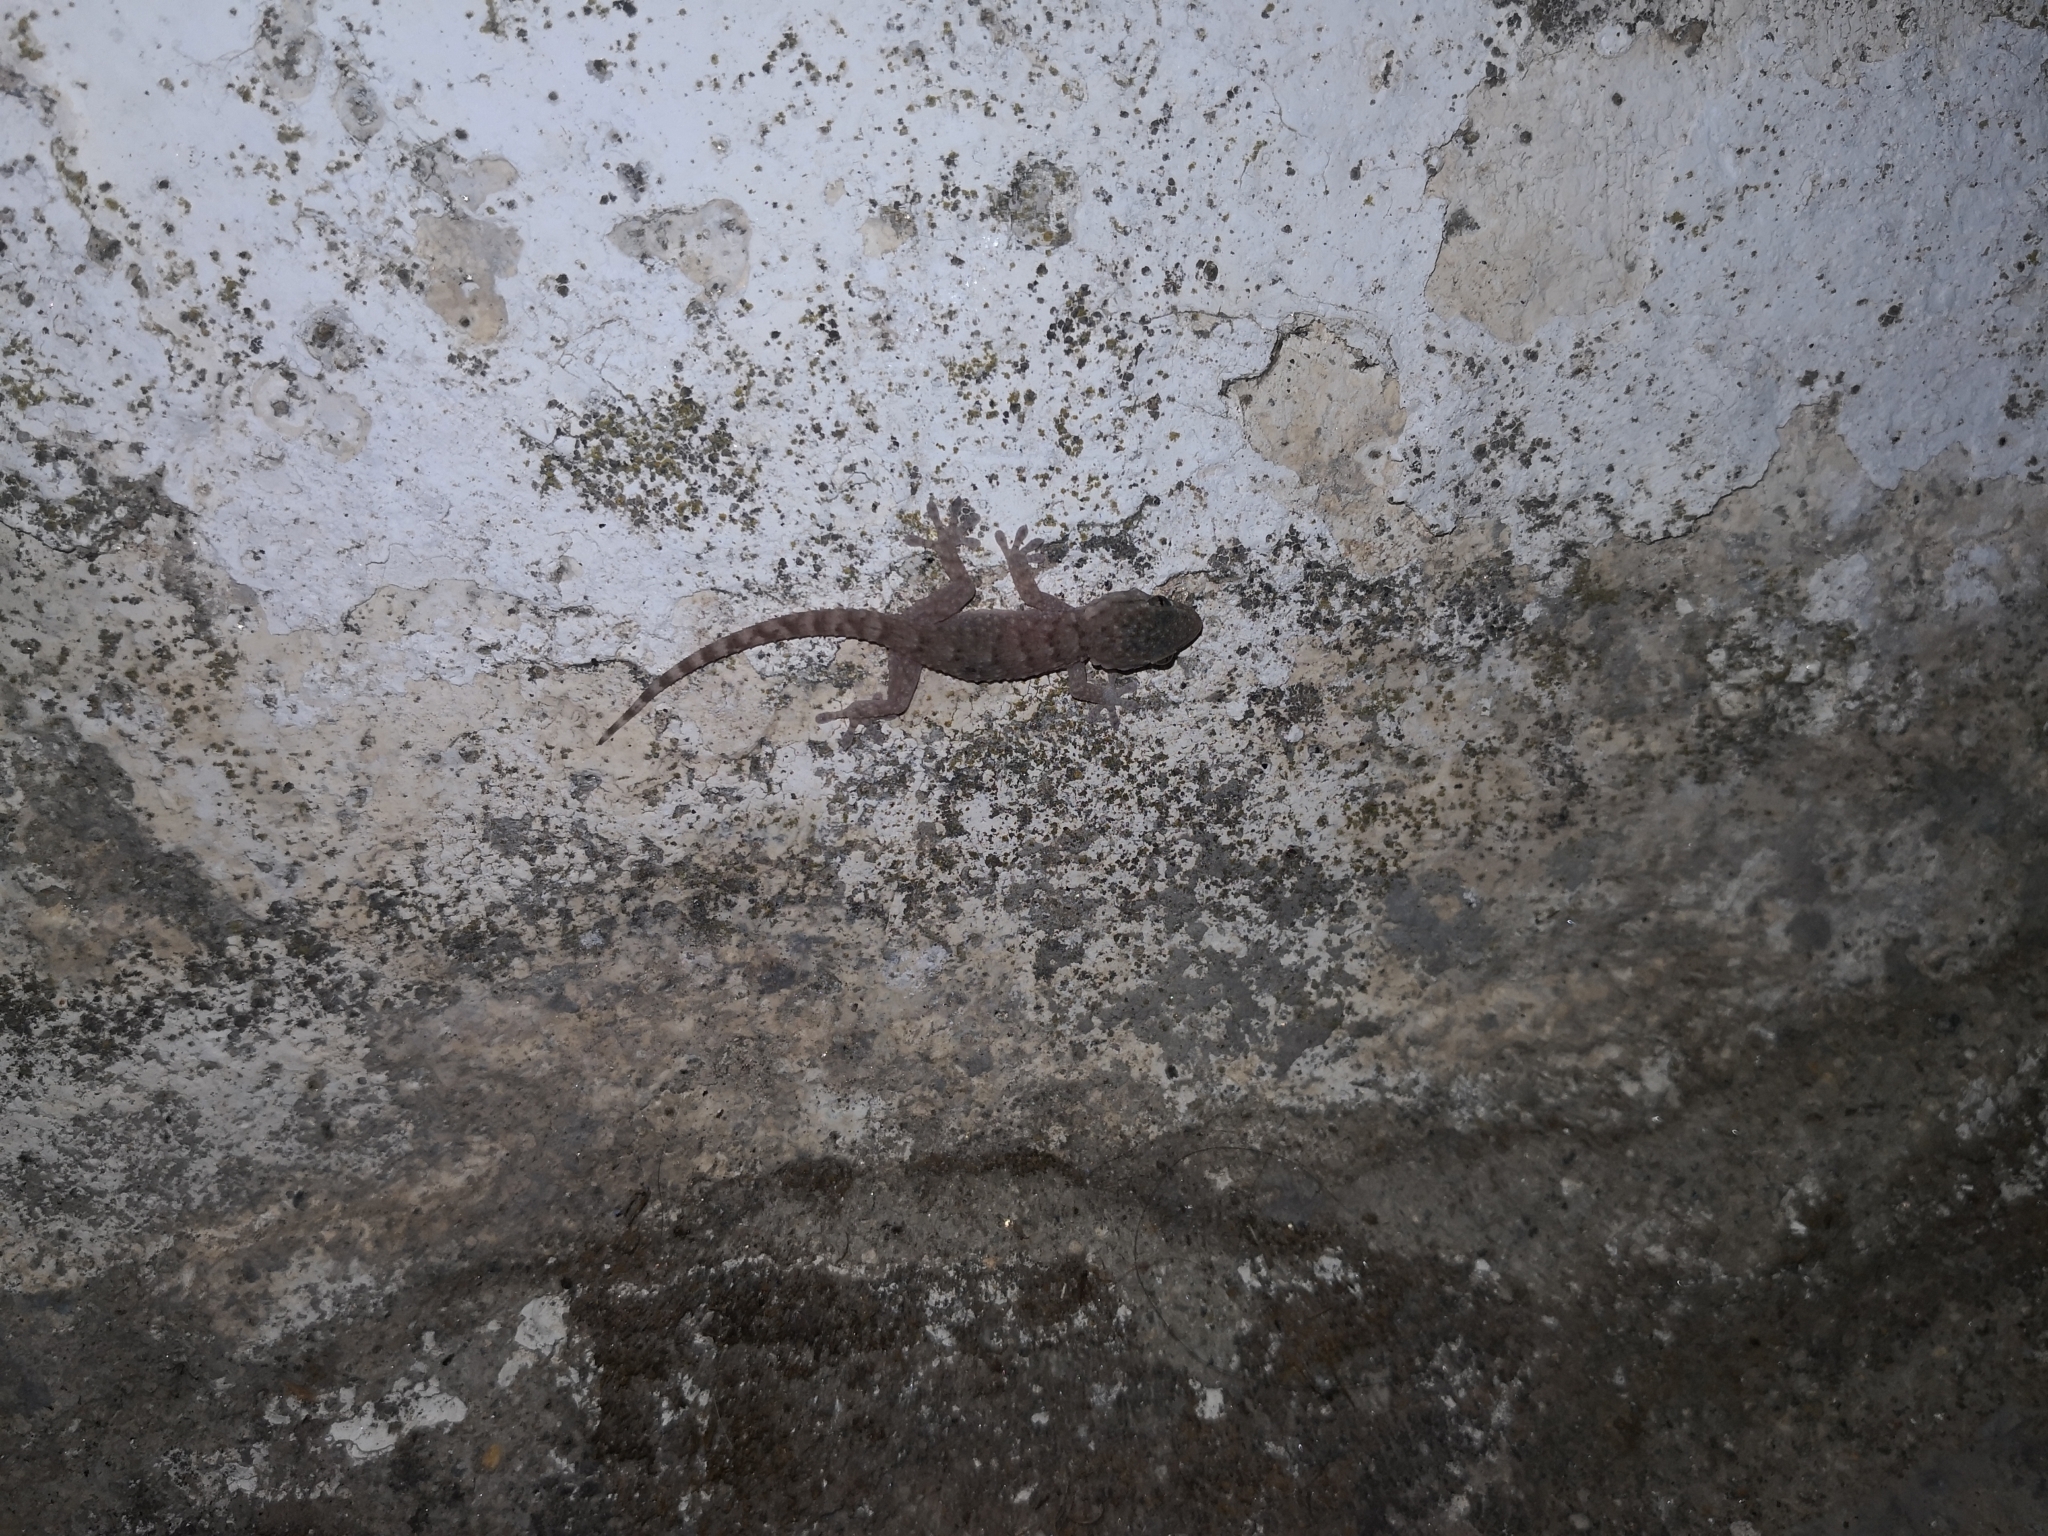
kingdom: Animalia
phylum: Chordata
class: Squamata
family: Phyllodactylidae
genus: Tarentola
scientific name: Tarentola mauritanica
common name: Moorish gecko
